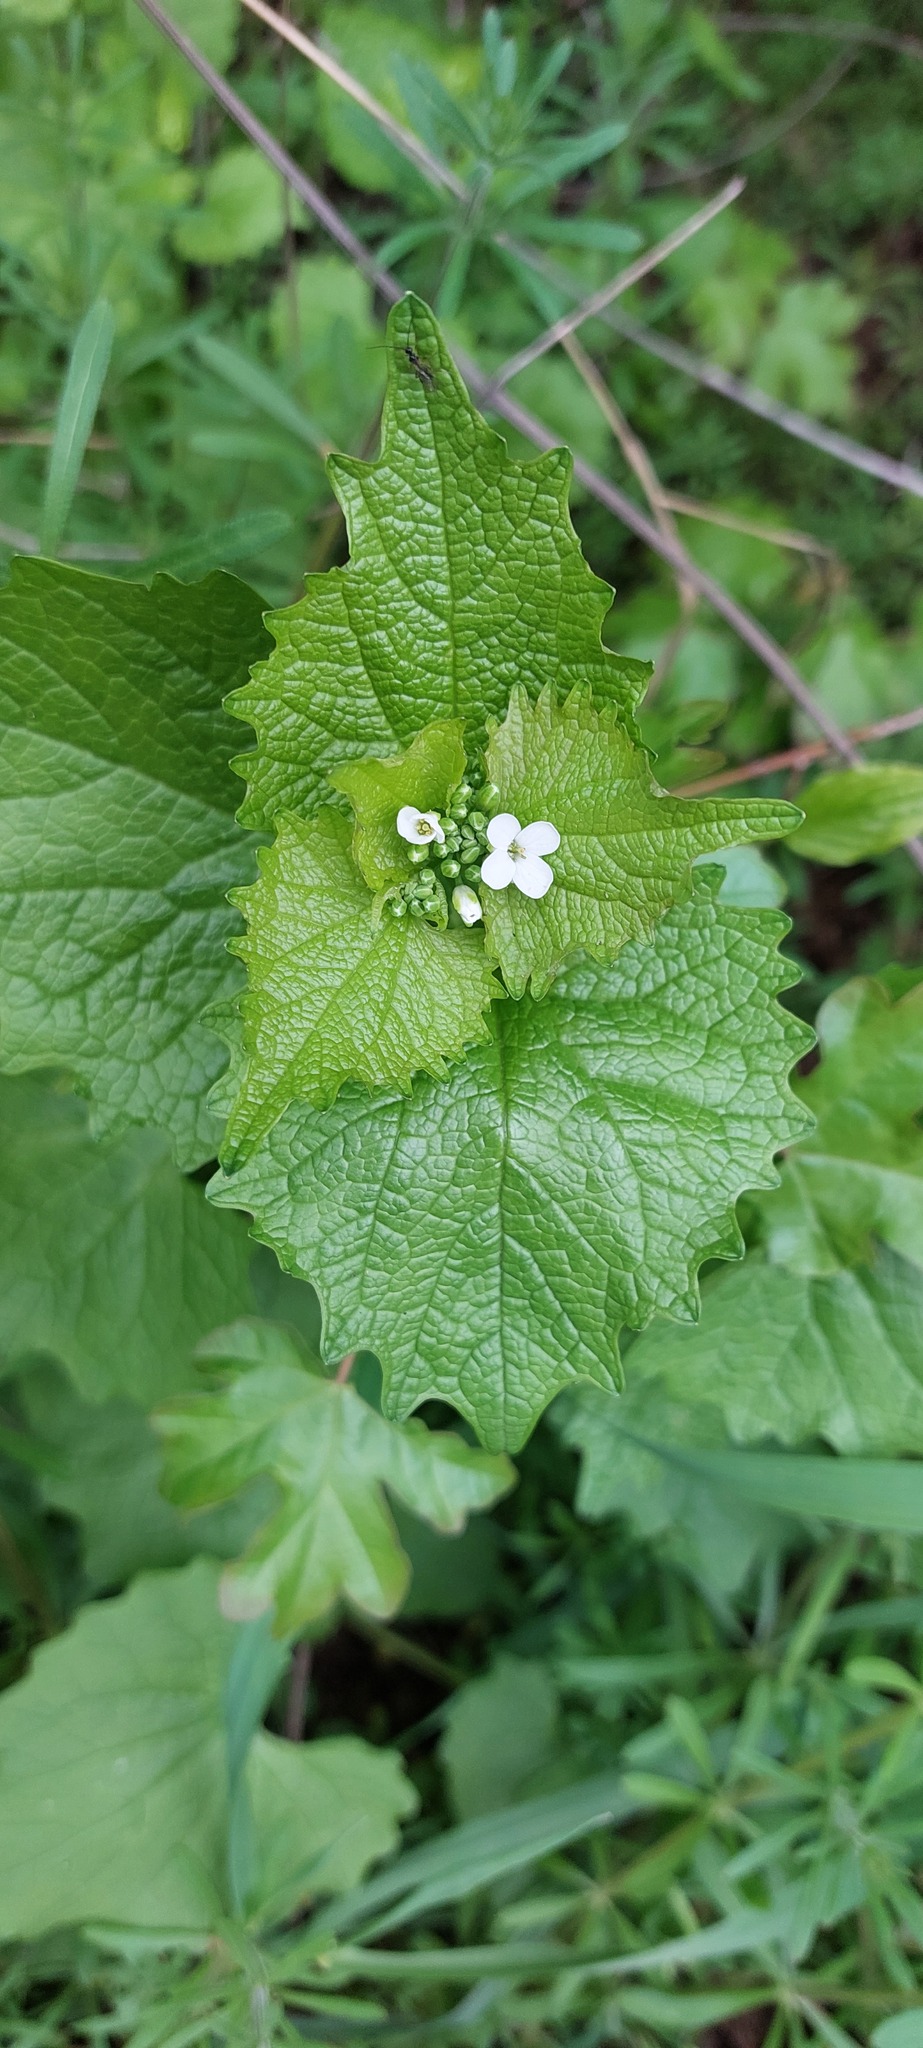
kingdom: Plantae
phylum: Tracheophyta
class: Magnoliopsida
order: Brassicales
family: Brassicaceae
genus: Alliaria
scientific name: Alliaria petiolata
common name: Garlic mustard
